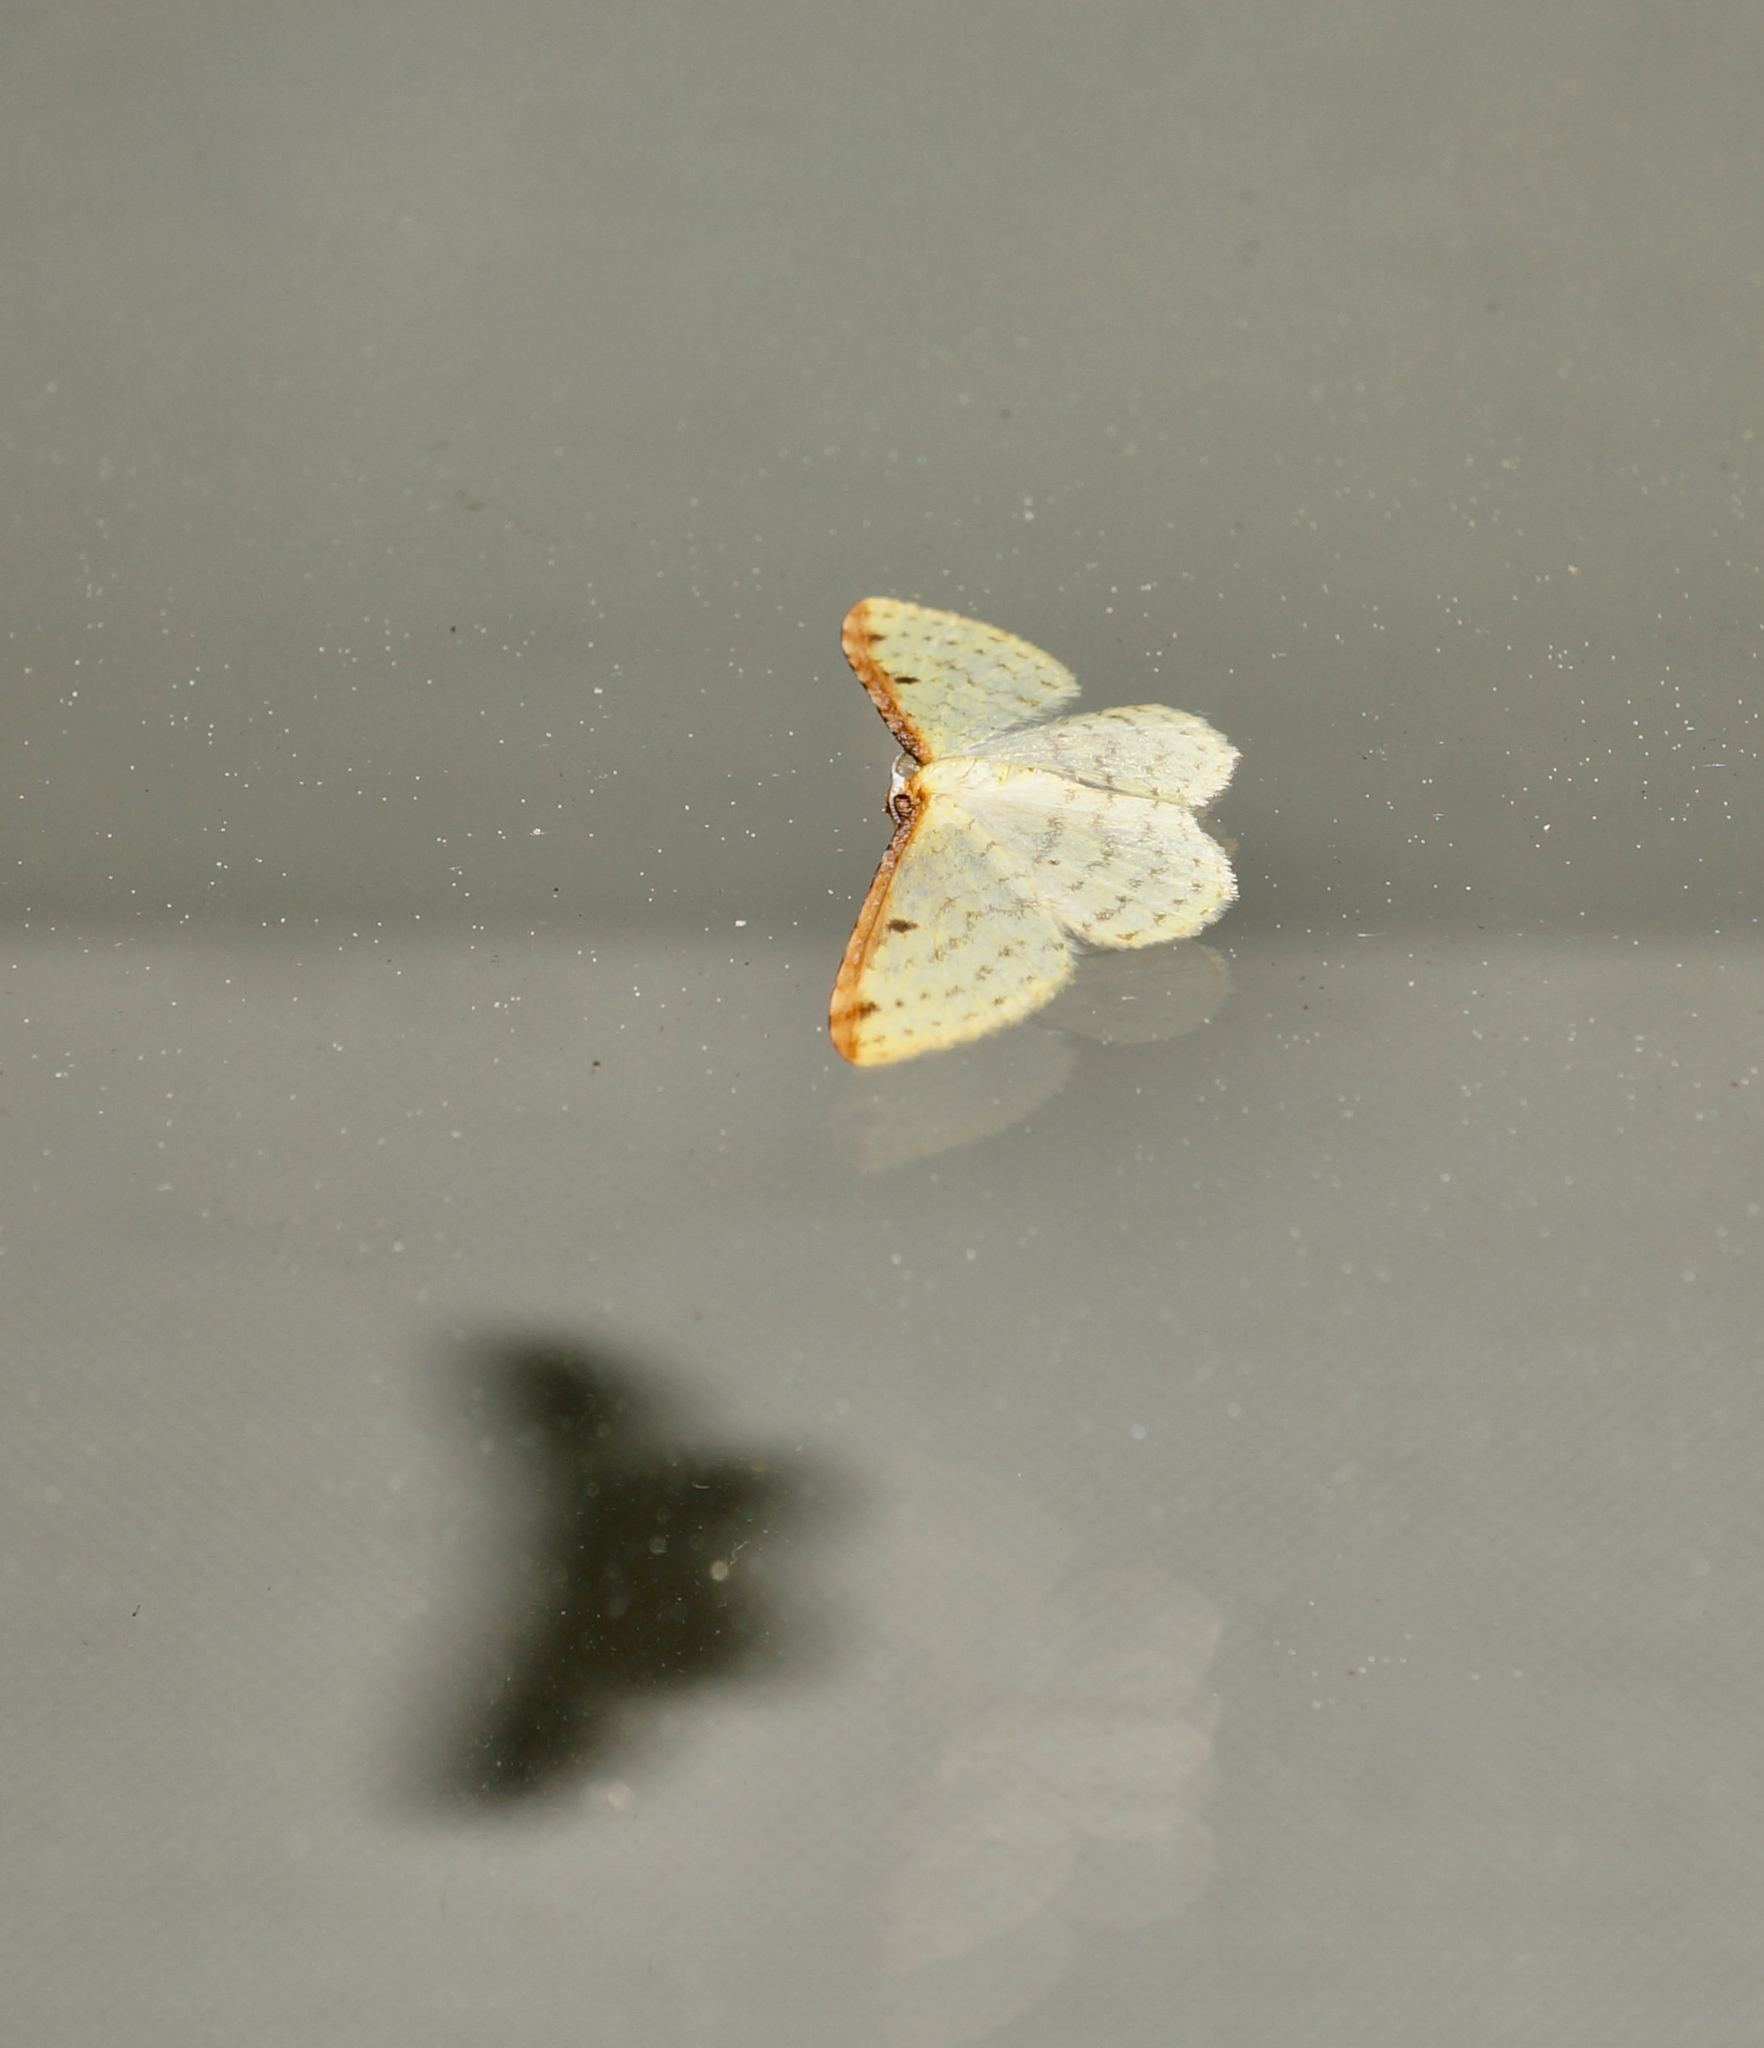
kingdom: Animalia
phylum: Arthropoda
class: Insecta
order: Lepidoptera
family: Geometridae
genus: Epiphryne
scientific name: Epiphryne undosata
